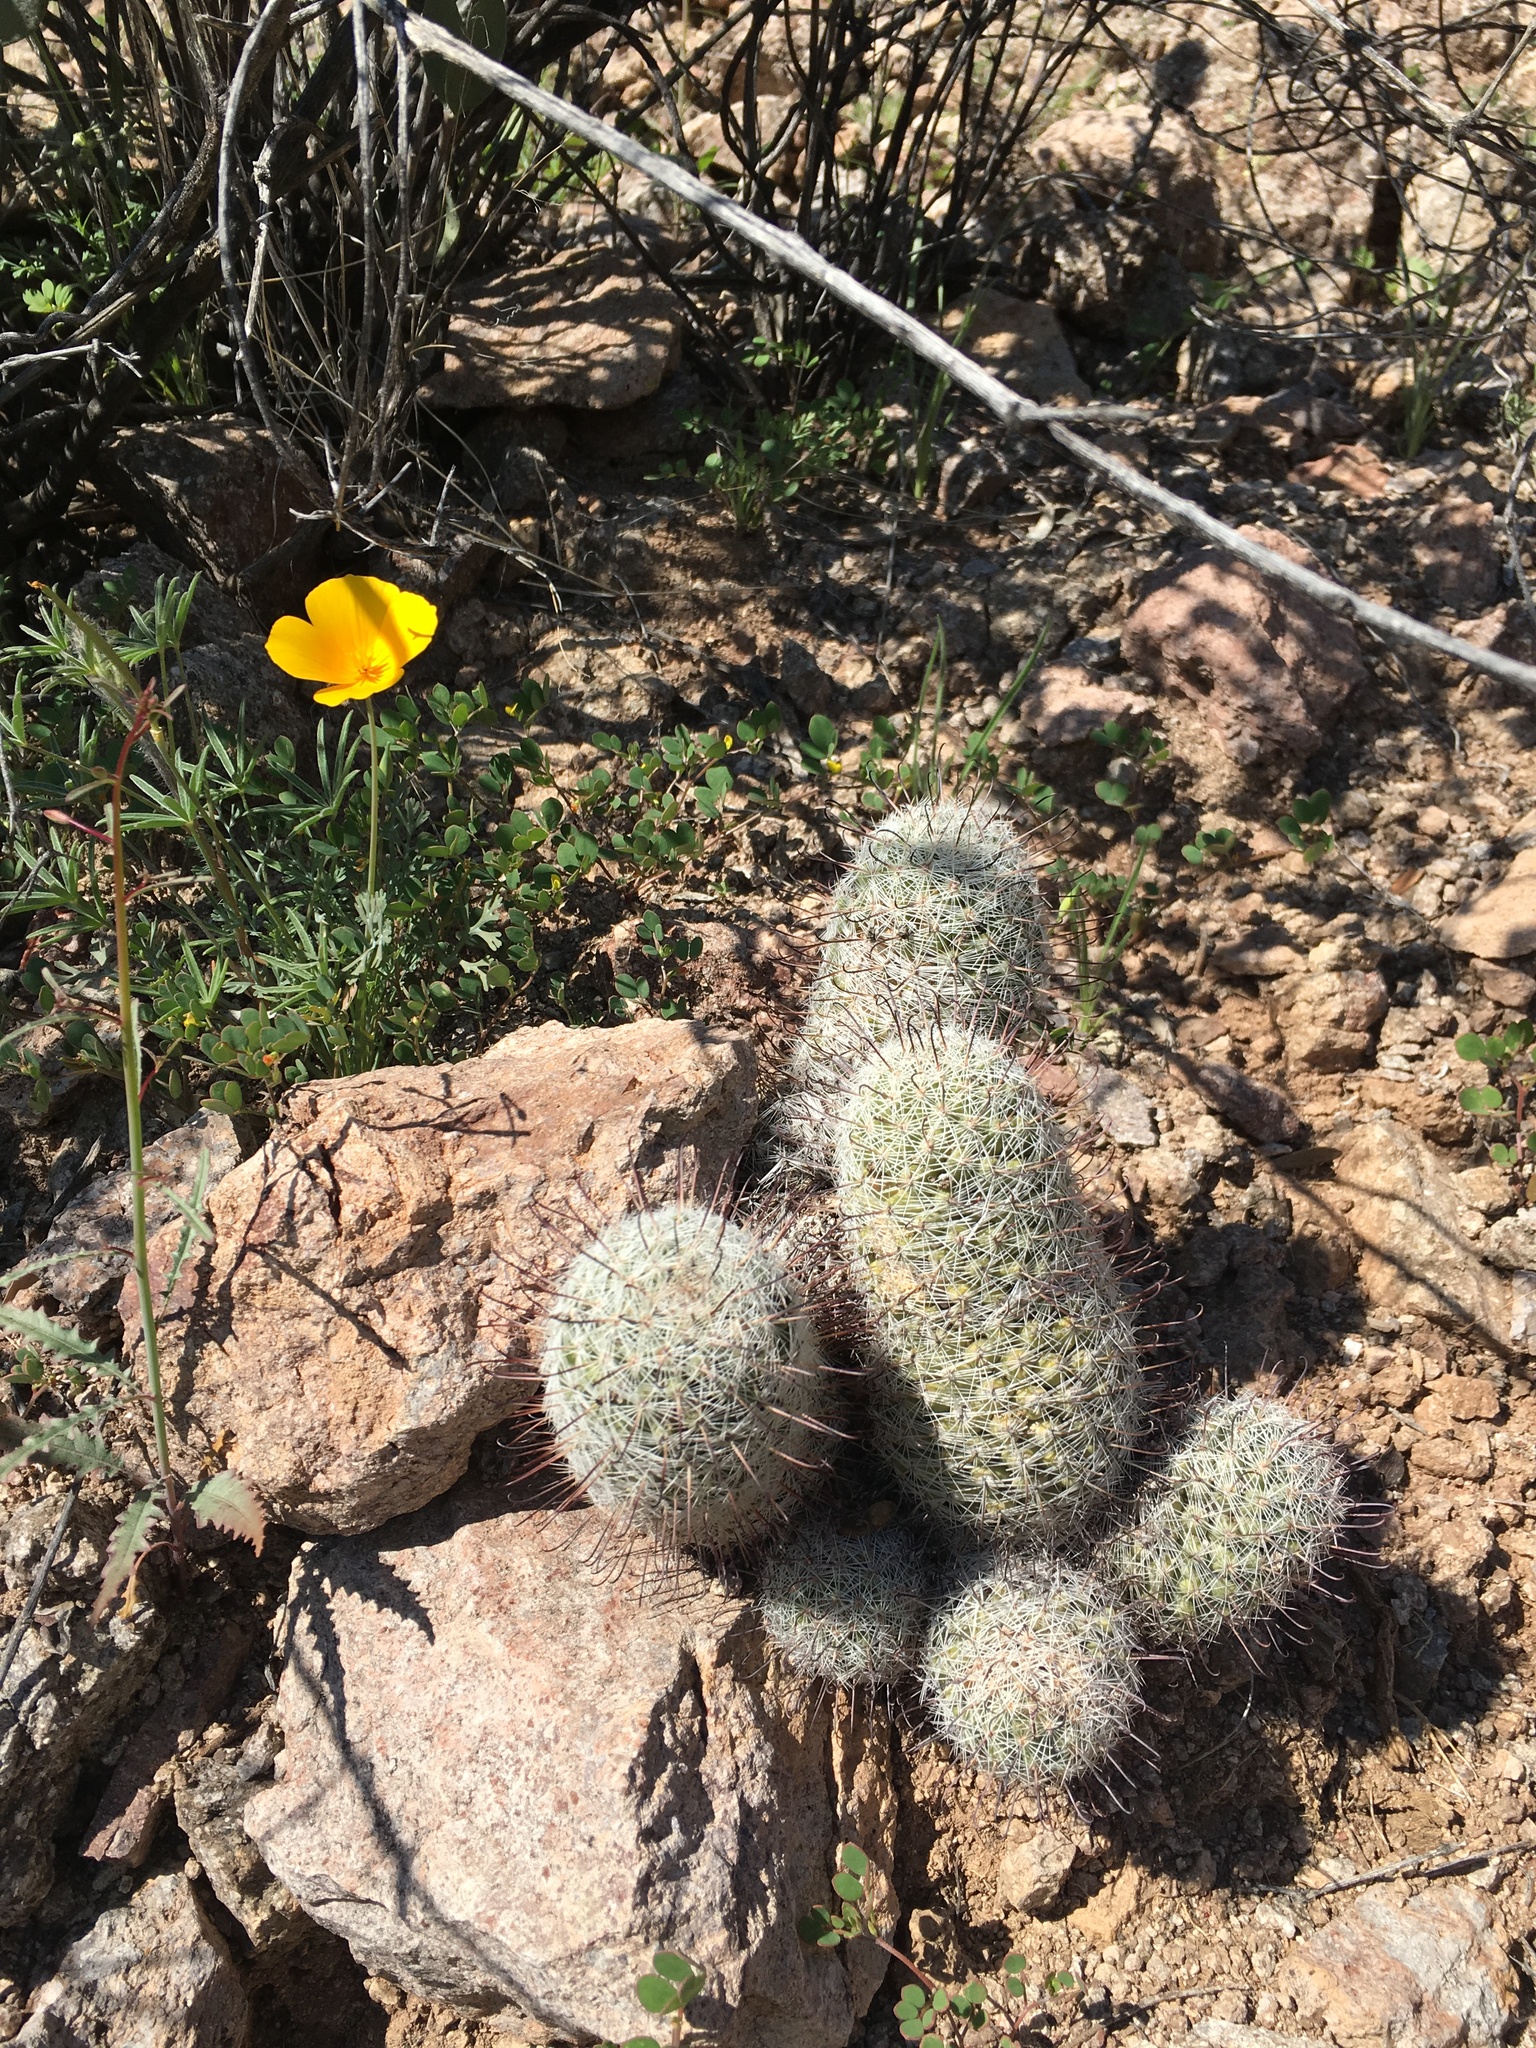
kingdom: Plantae
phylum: Tracheophyta
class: Magnoliopsida
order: Caryophyllales
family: Cactaceae
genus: Cochemiea
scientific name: Cochemiea grahamii
